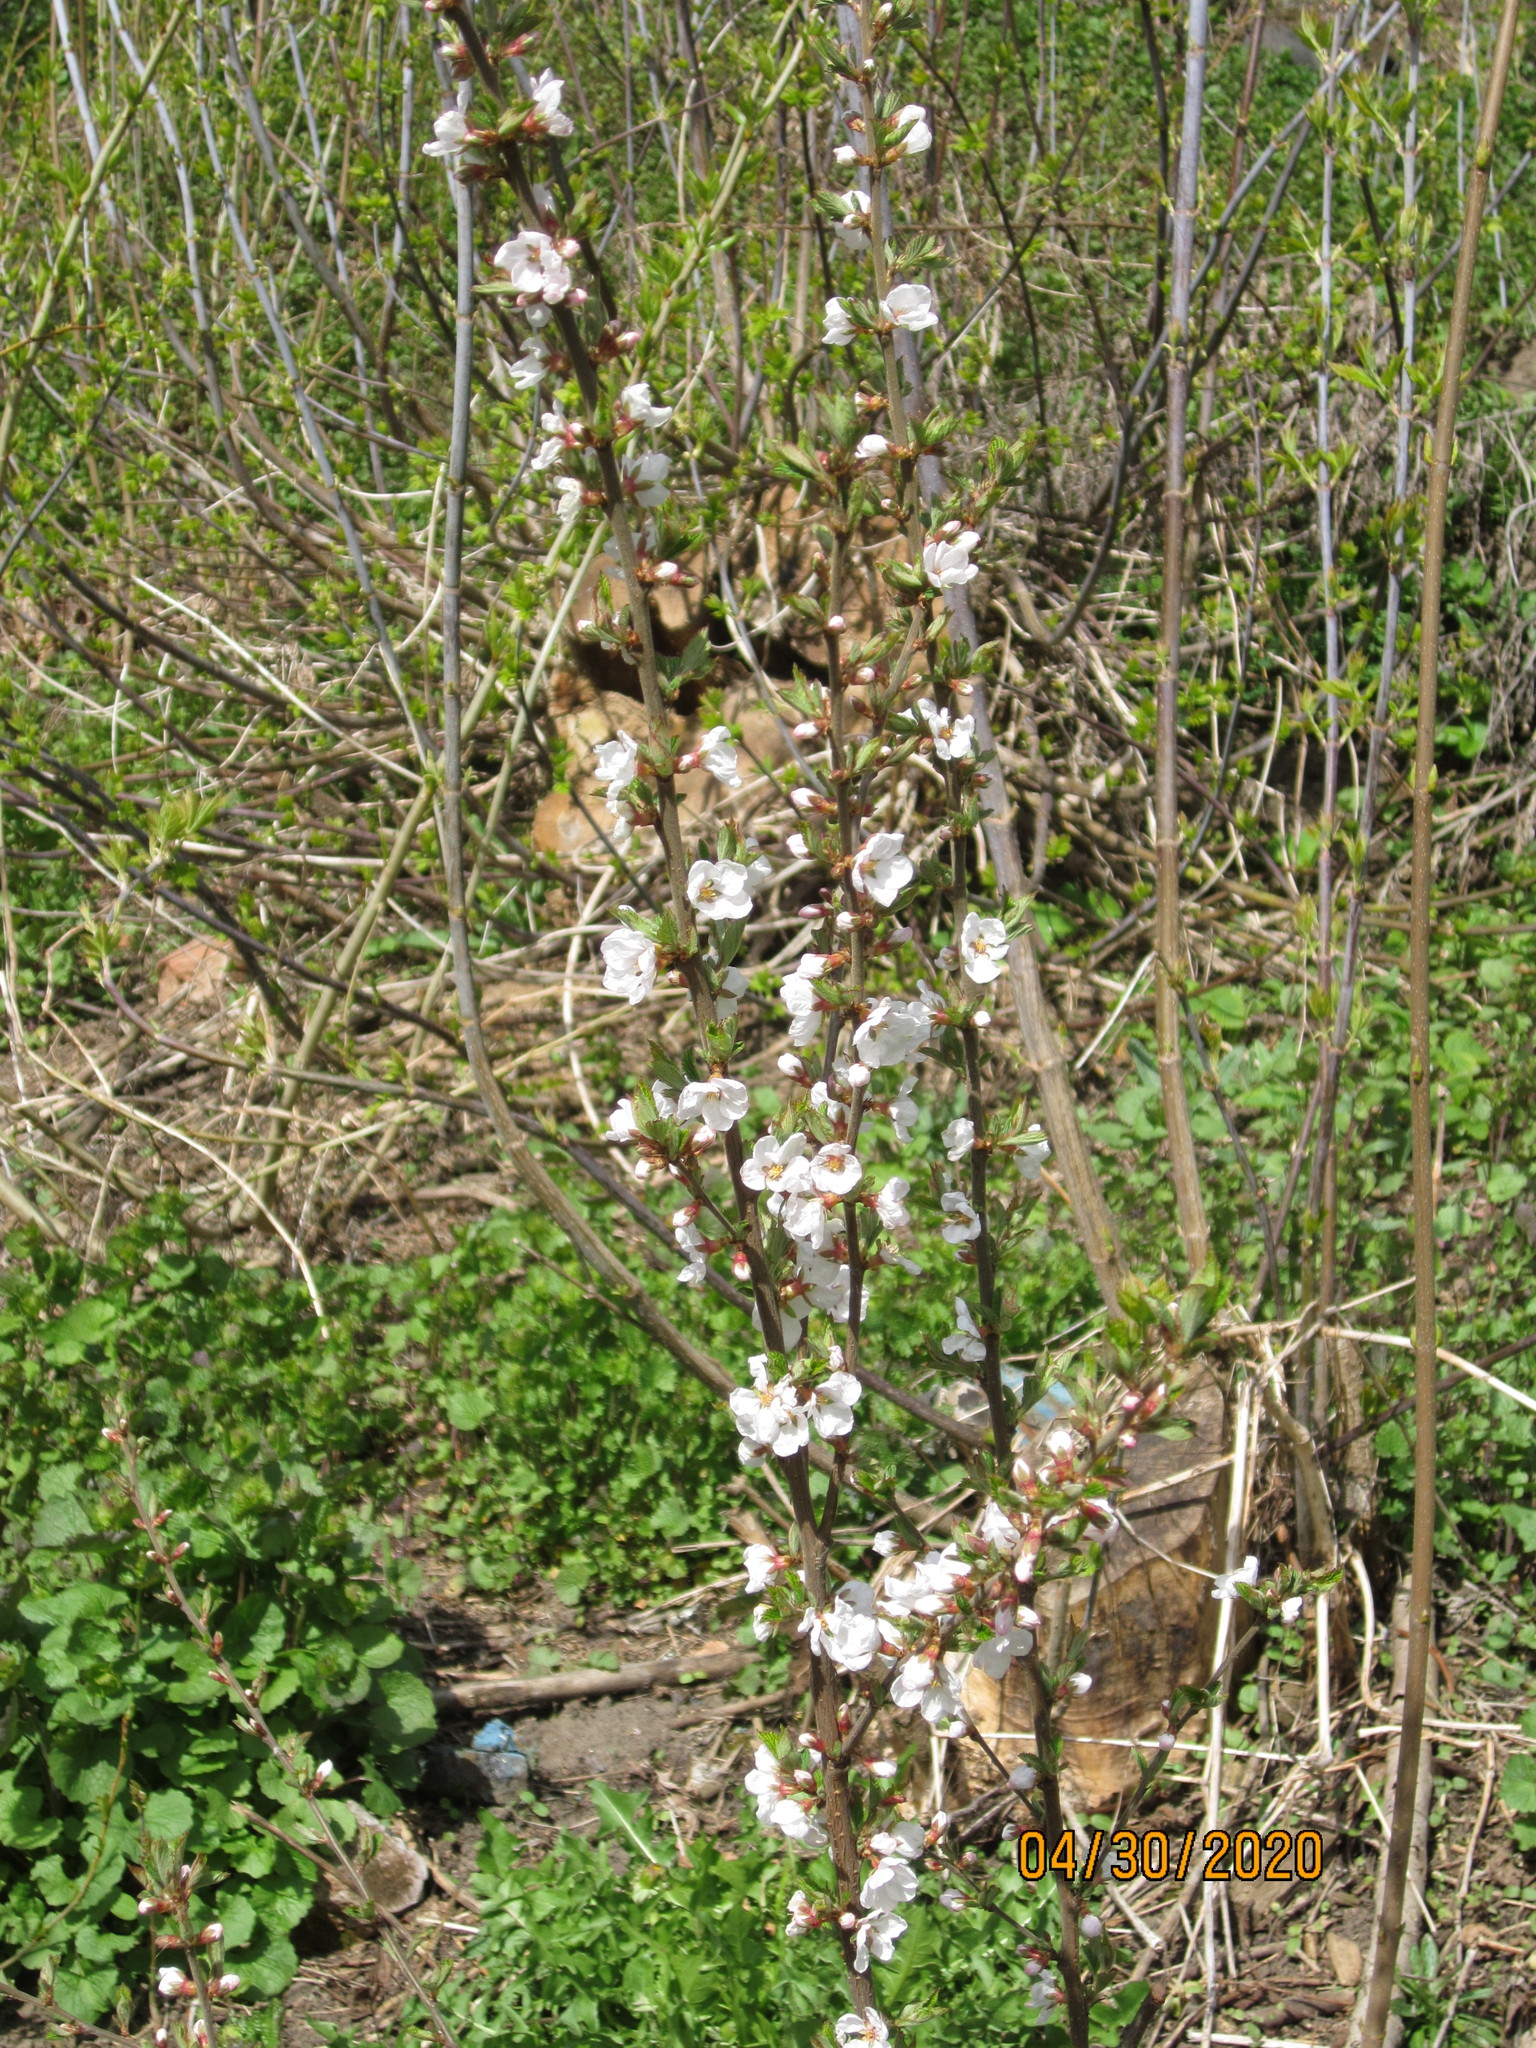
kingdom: Plantae
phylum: Tracheophyta
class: Magnoliopsida
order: Rosales
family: Rosaceae
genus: Prunus
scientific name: Prunus tomentosa
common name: Nanking cherry
